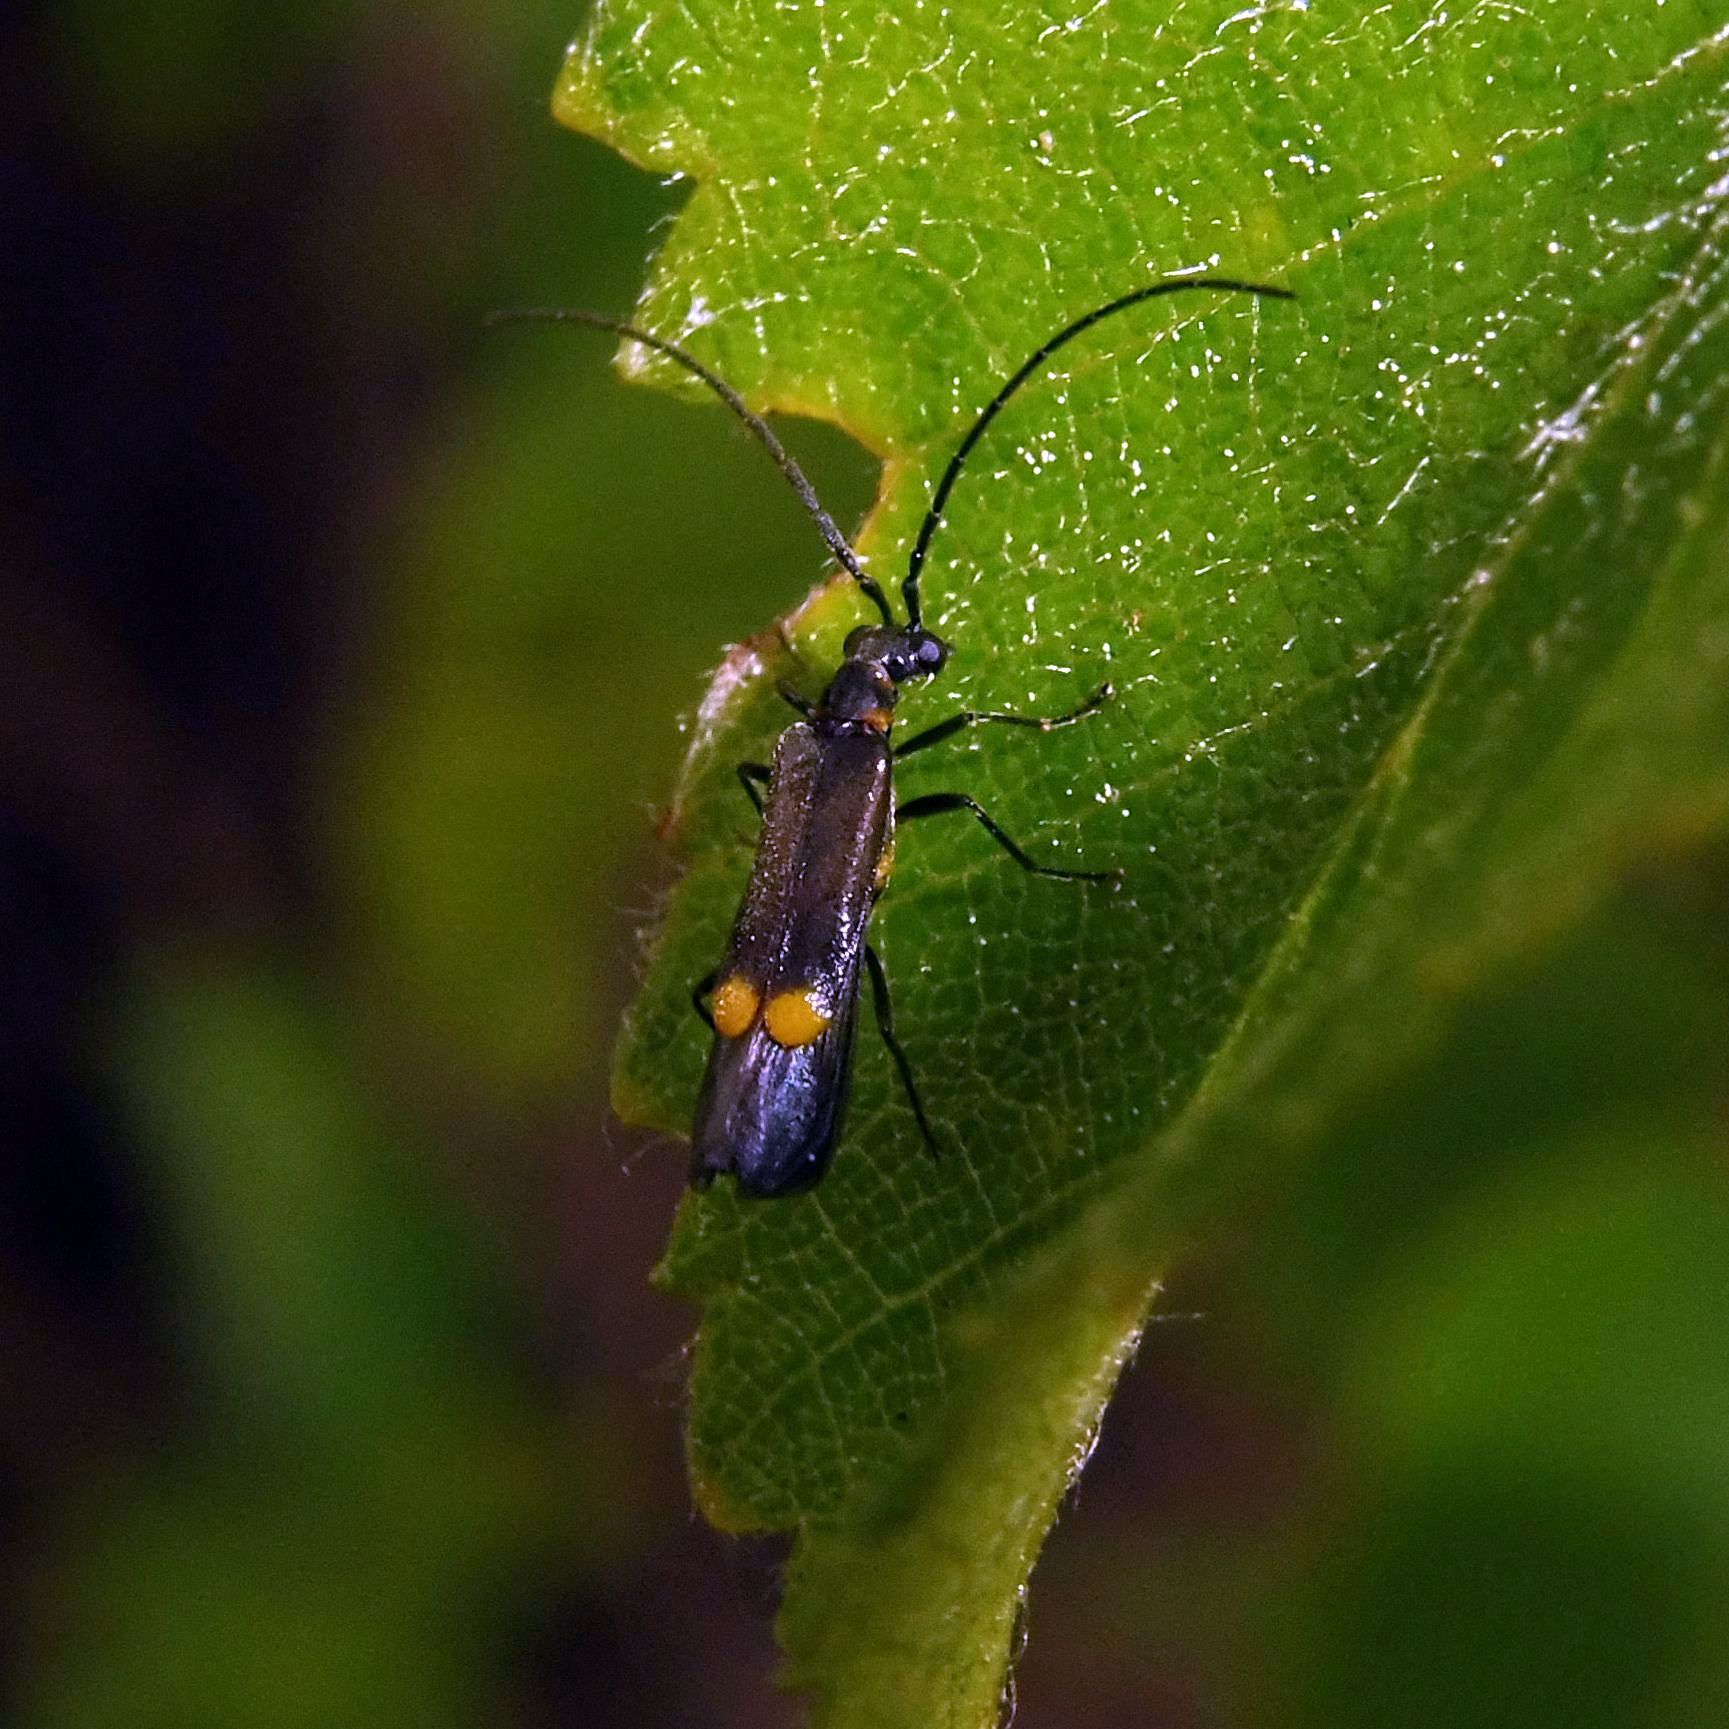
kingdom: Animalia
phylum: Arthropoda
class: Insecta
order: Coleoptera
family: Cantharidae
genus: Malthodes
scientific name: Malthodes marginatus
